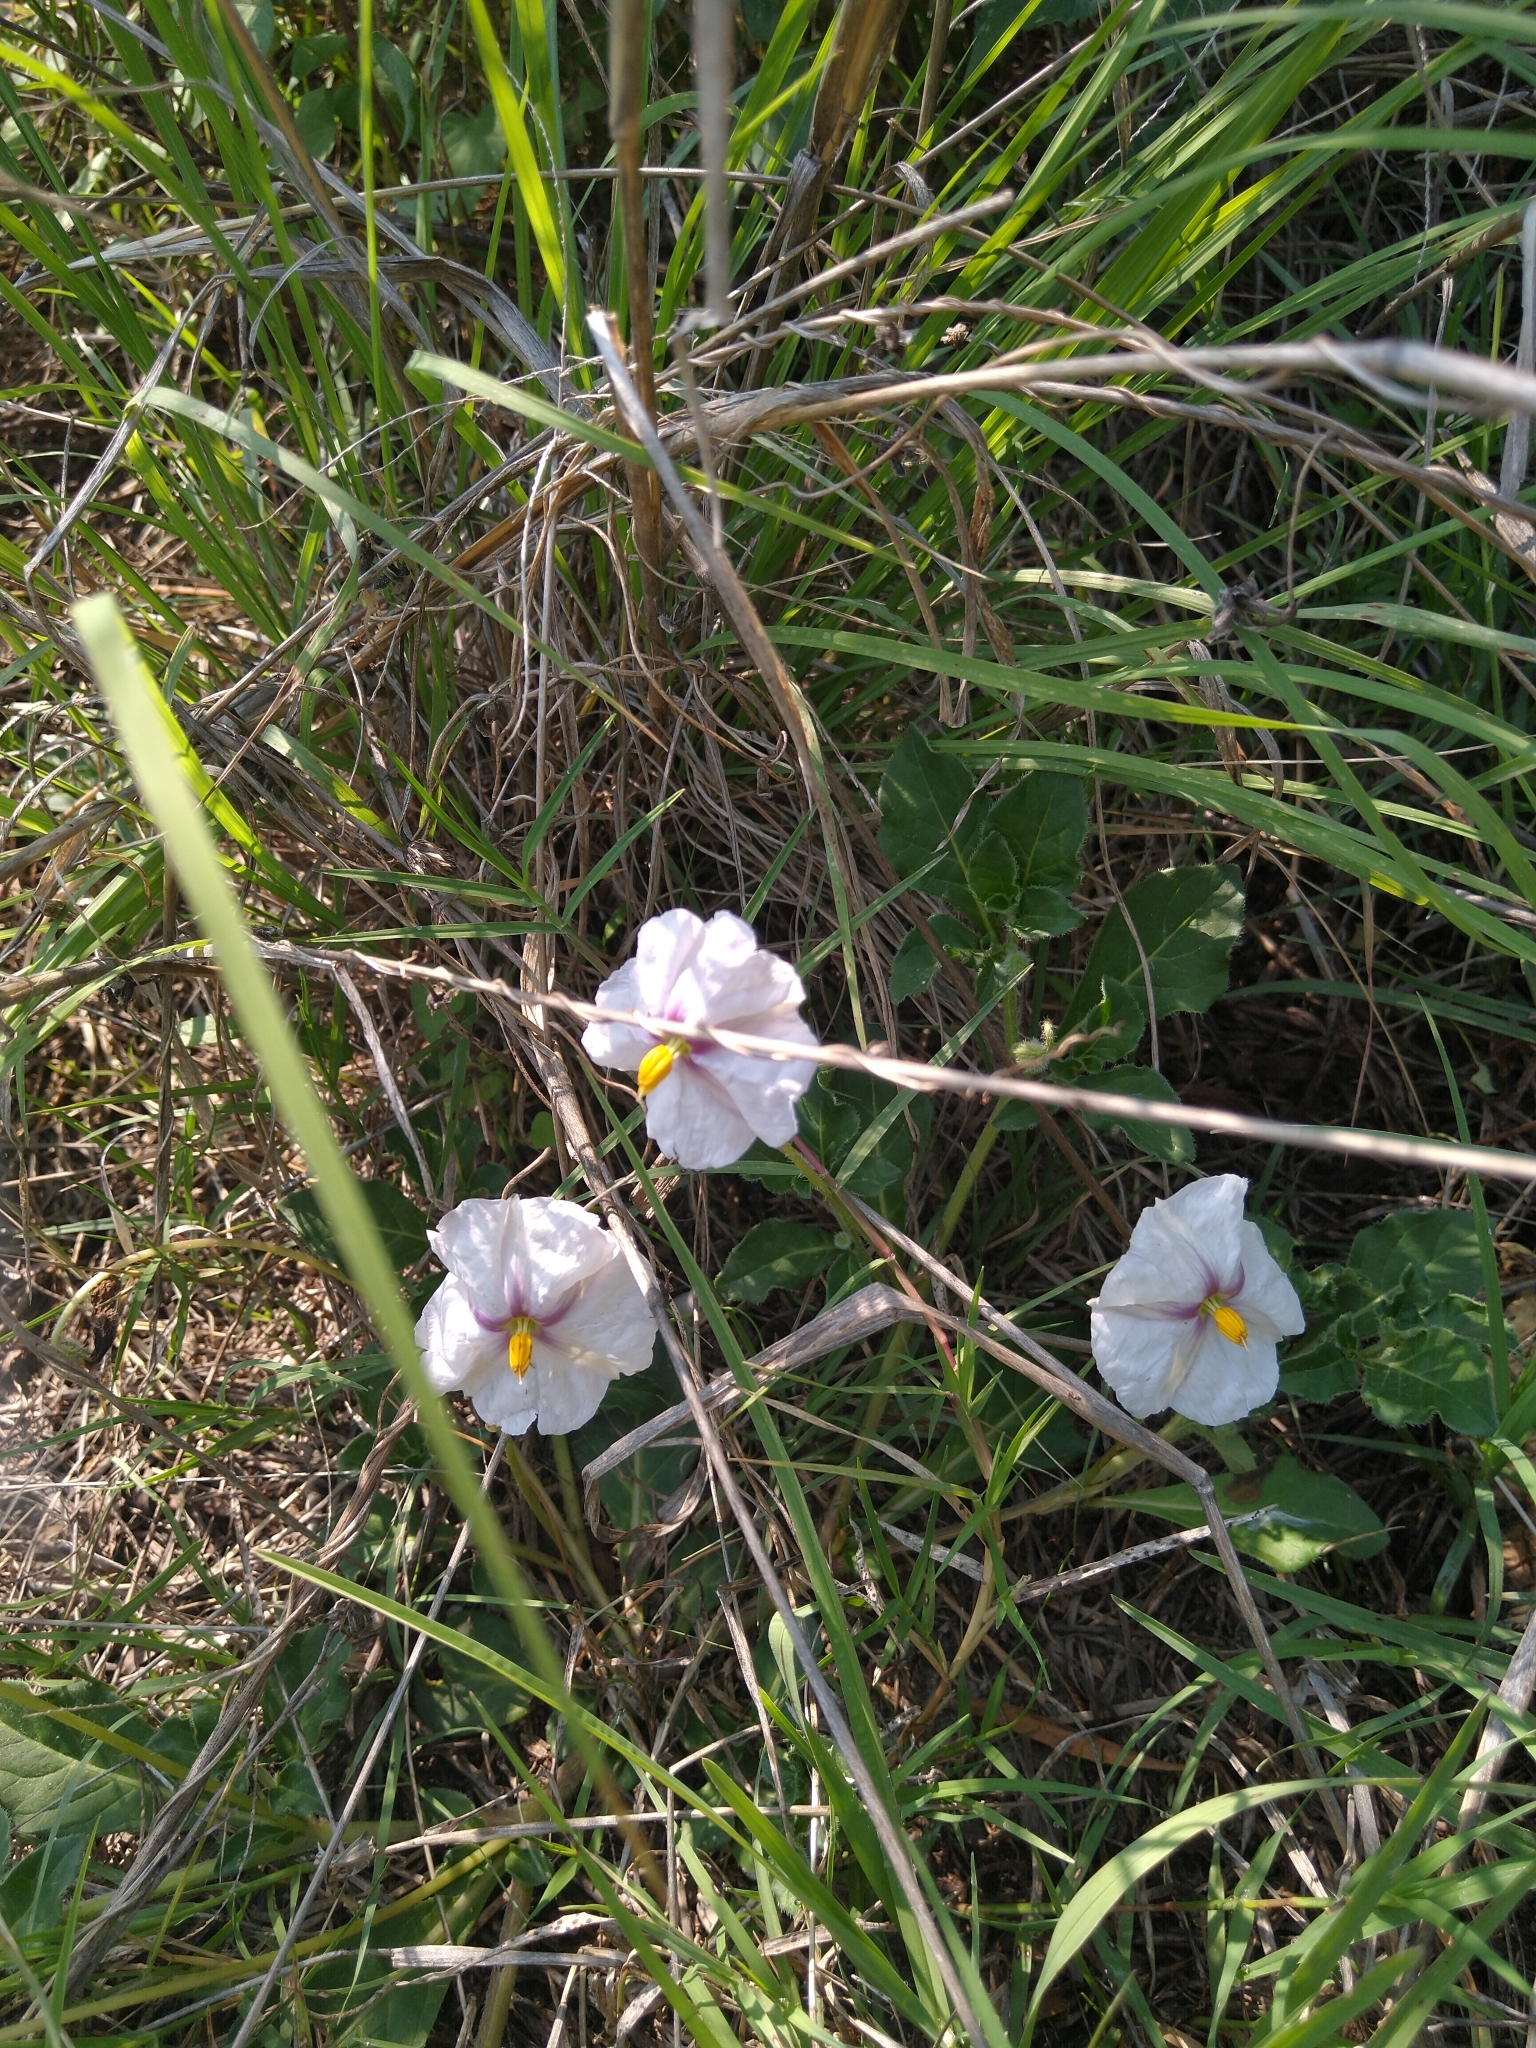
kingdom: Plantae
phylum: Tracheophyta
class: Magnoliopsida
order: Solanales
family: Solanaceae
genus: Lycianthes
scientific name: Lycianthes peduncularis
